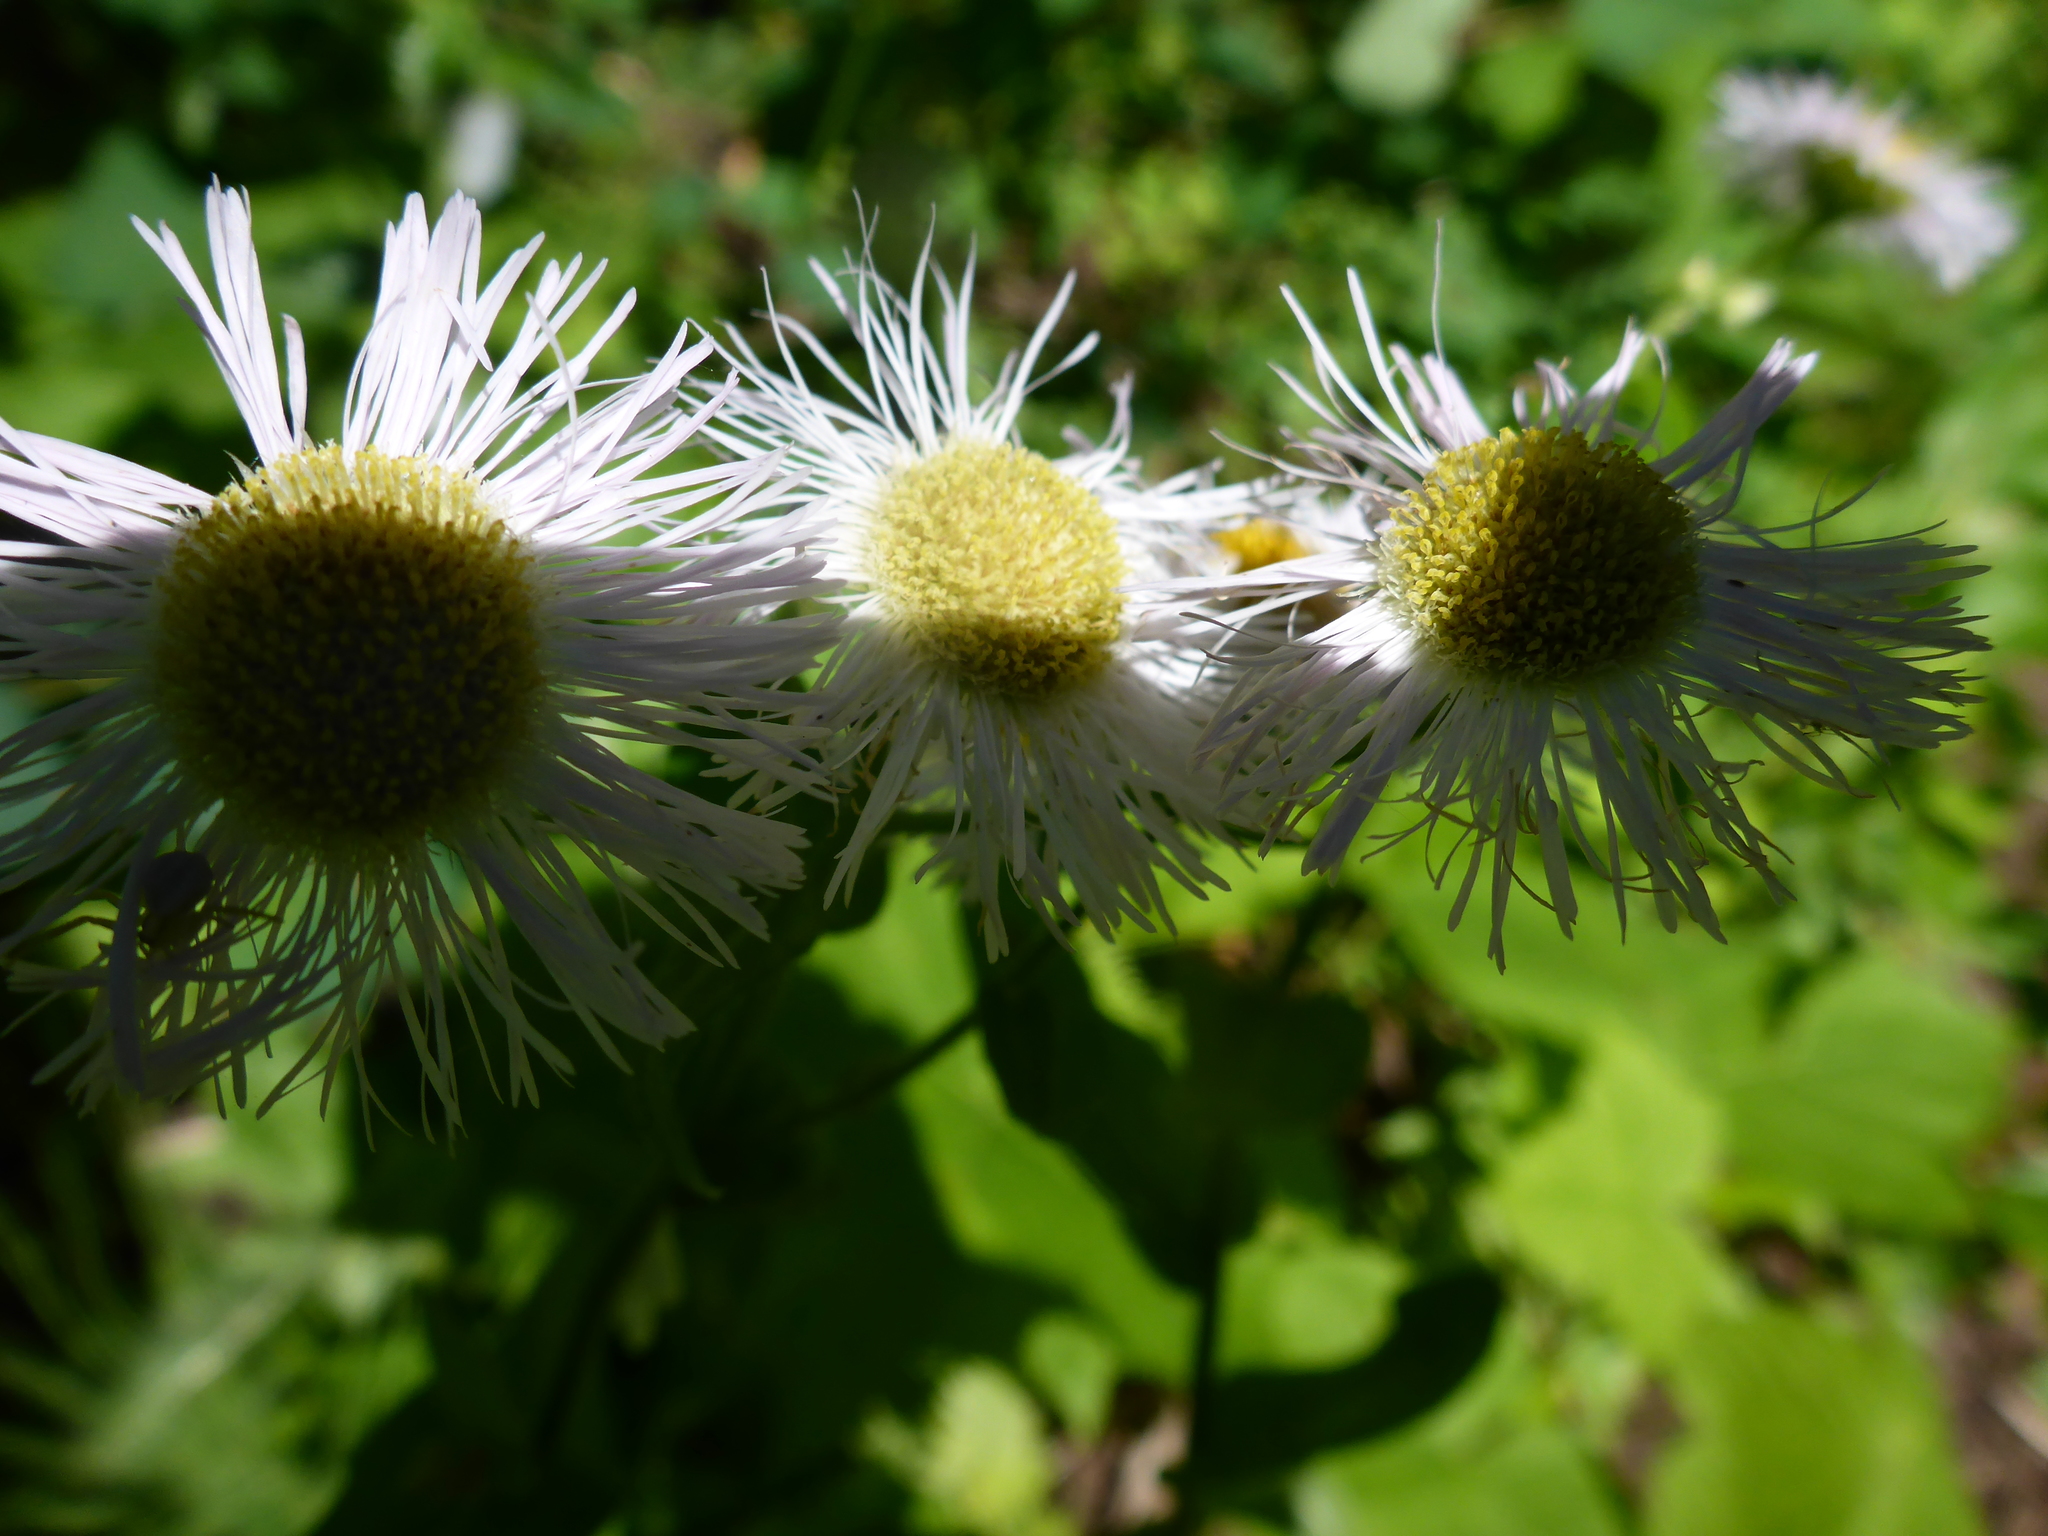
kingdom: Plantae
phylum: Tracheophyta
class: Magnoliopsida
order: Asterales
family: Asteraceae
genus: Erigeron
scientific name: Erigeron philadelphicus
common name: Robin's-plantain
